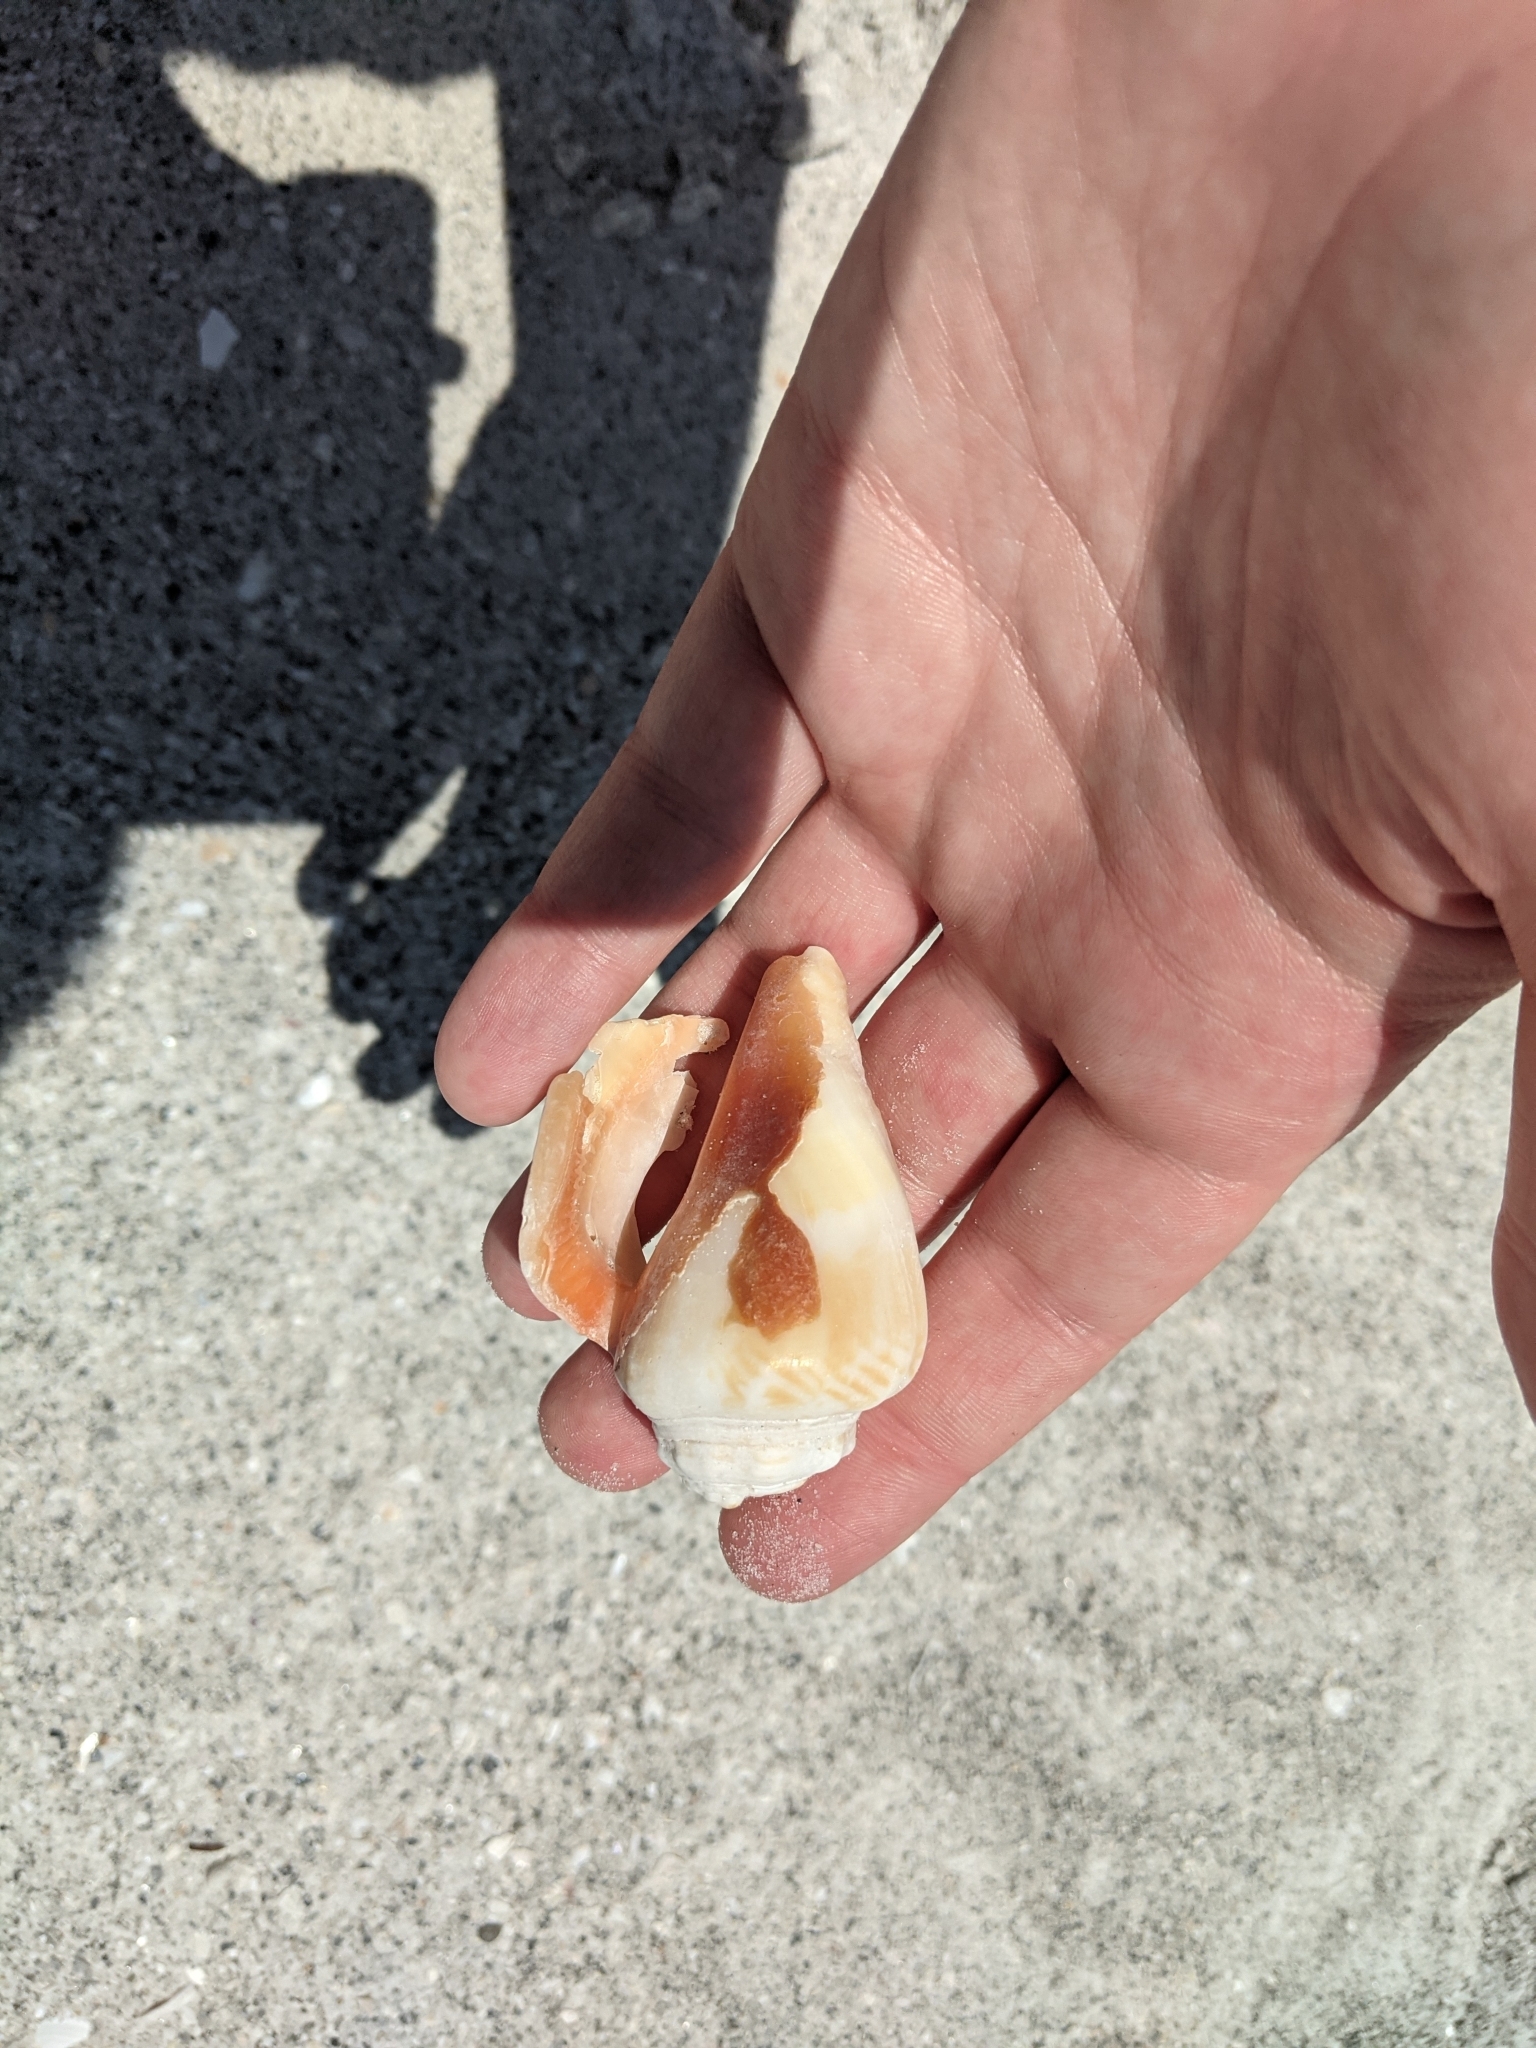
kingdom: Animalia
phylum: Mollusca
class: Gastropoda
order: Littorinimorpha
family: Strombidae
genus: Strombus
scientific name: Strombus alatus
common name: Florida fighting conch
